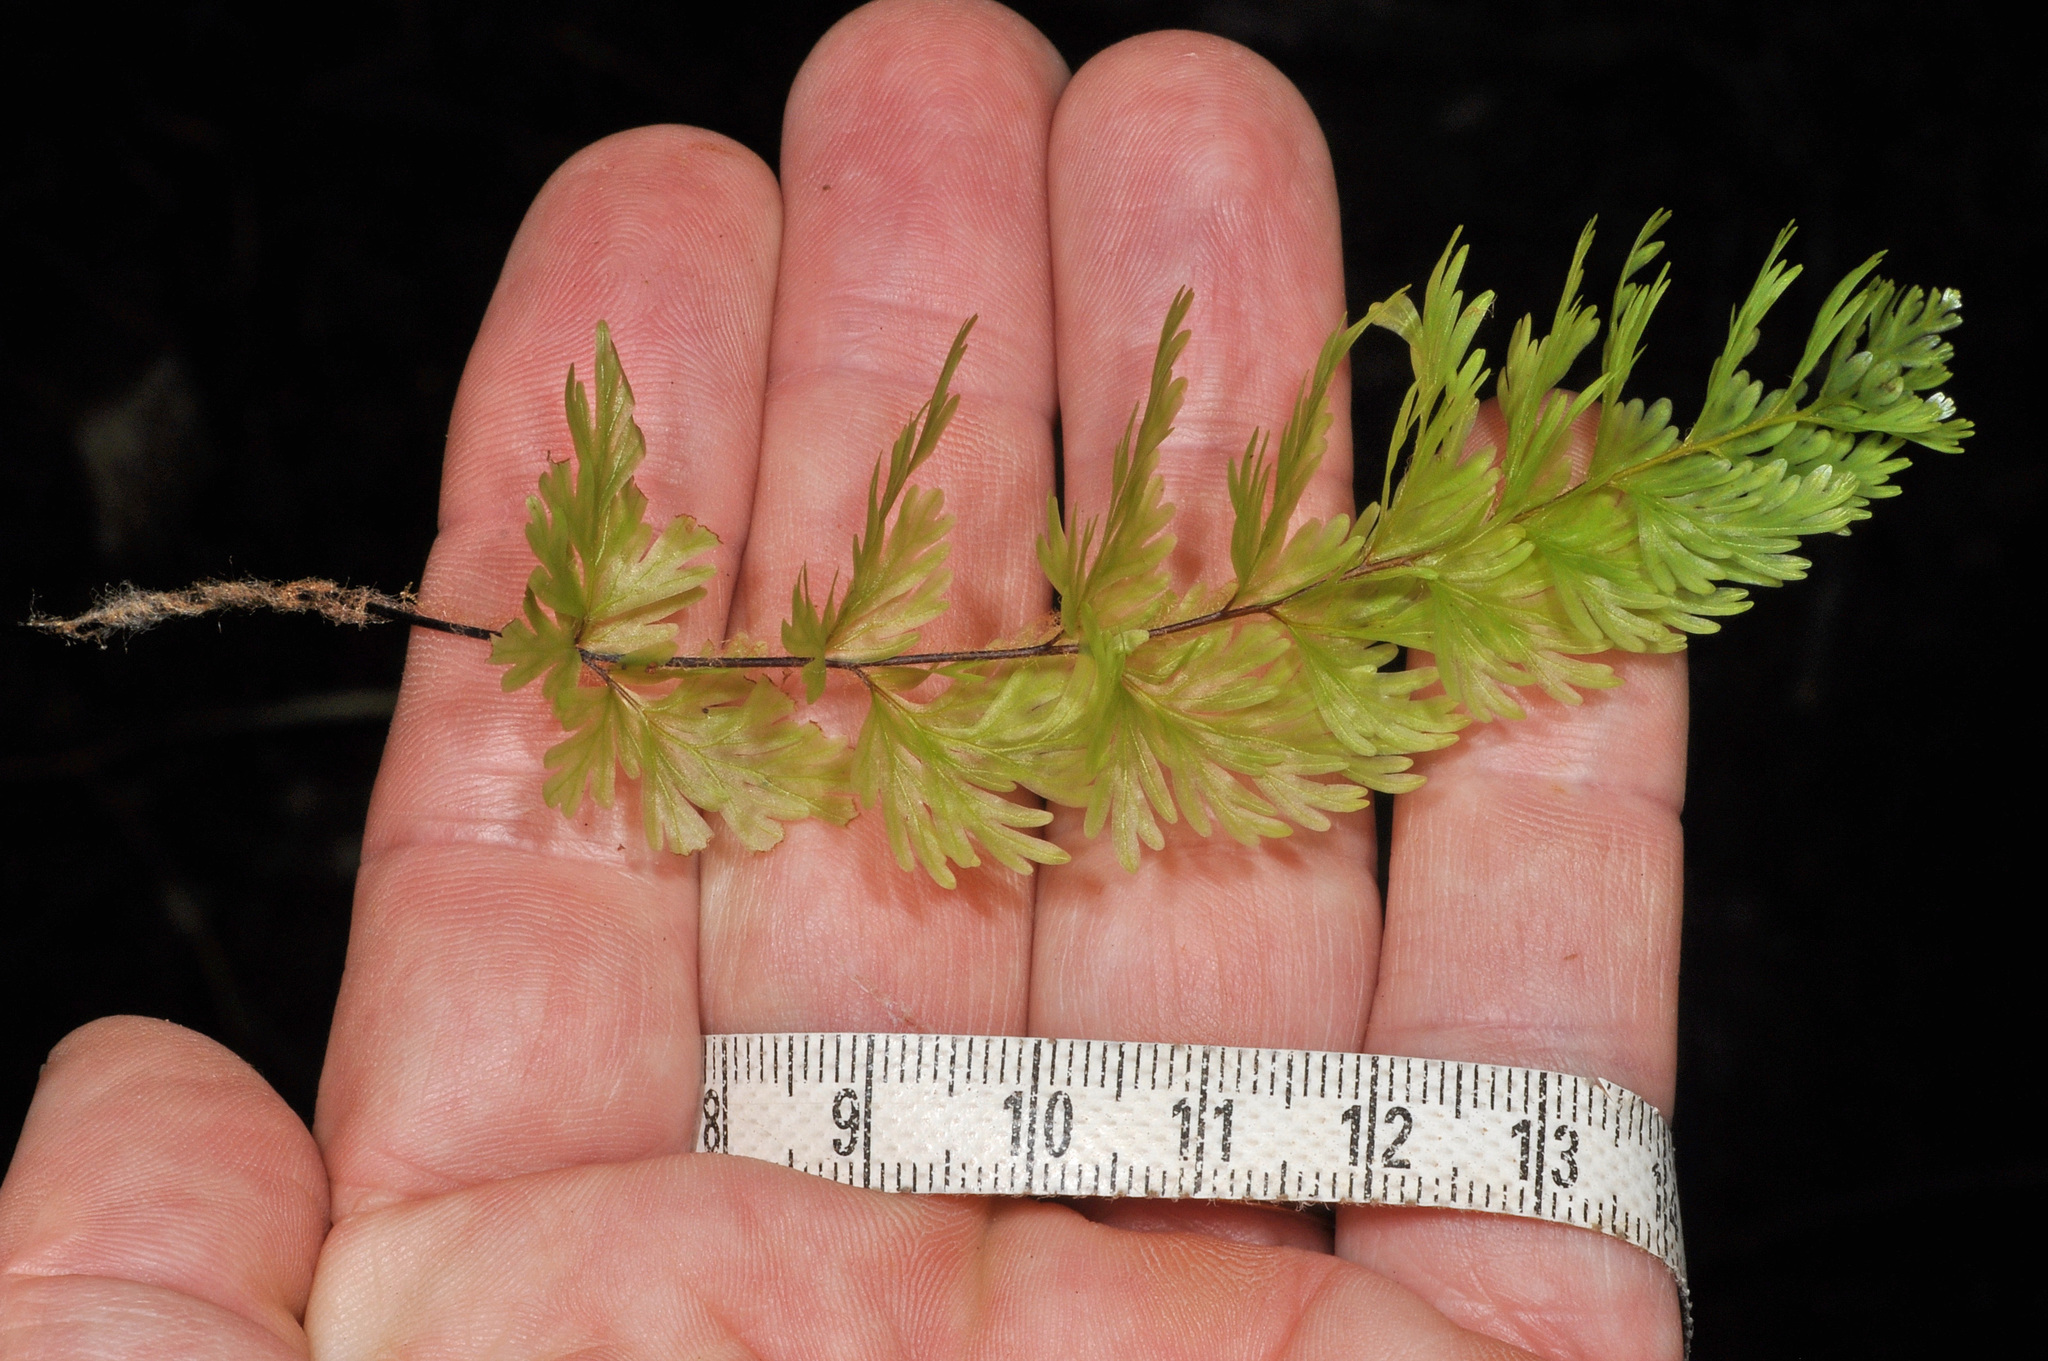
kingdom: Plantae
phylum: Tracheophyta
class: Polypodiopsida
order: Hymenophyllales
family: Hymenophyllaceae
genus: Hymenophyllum
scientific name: Hymenophyllum flabellatum
